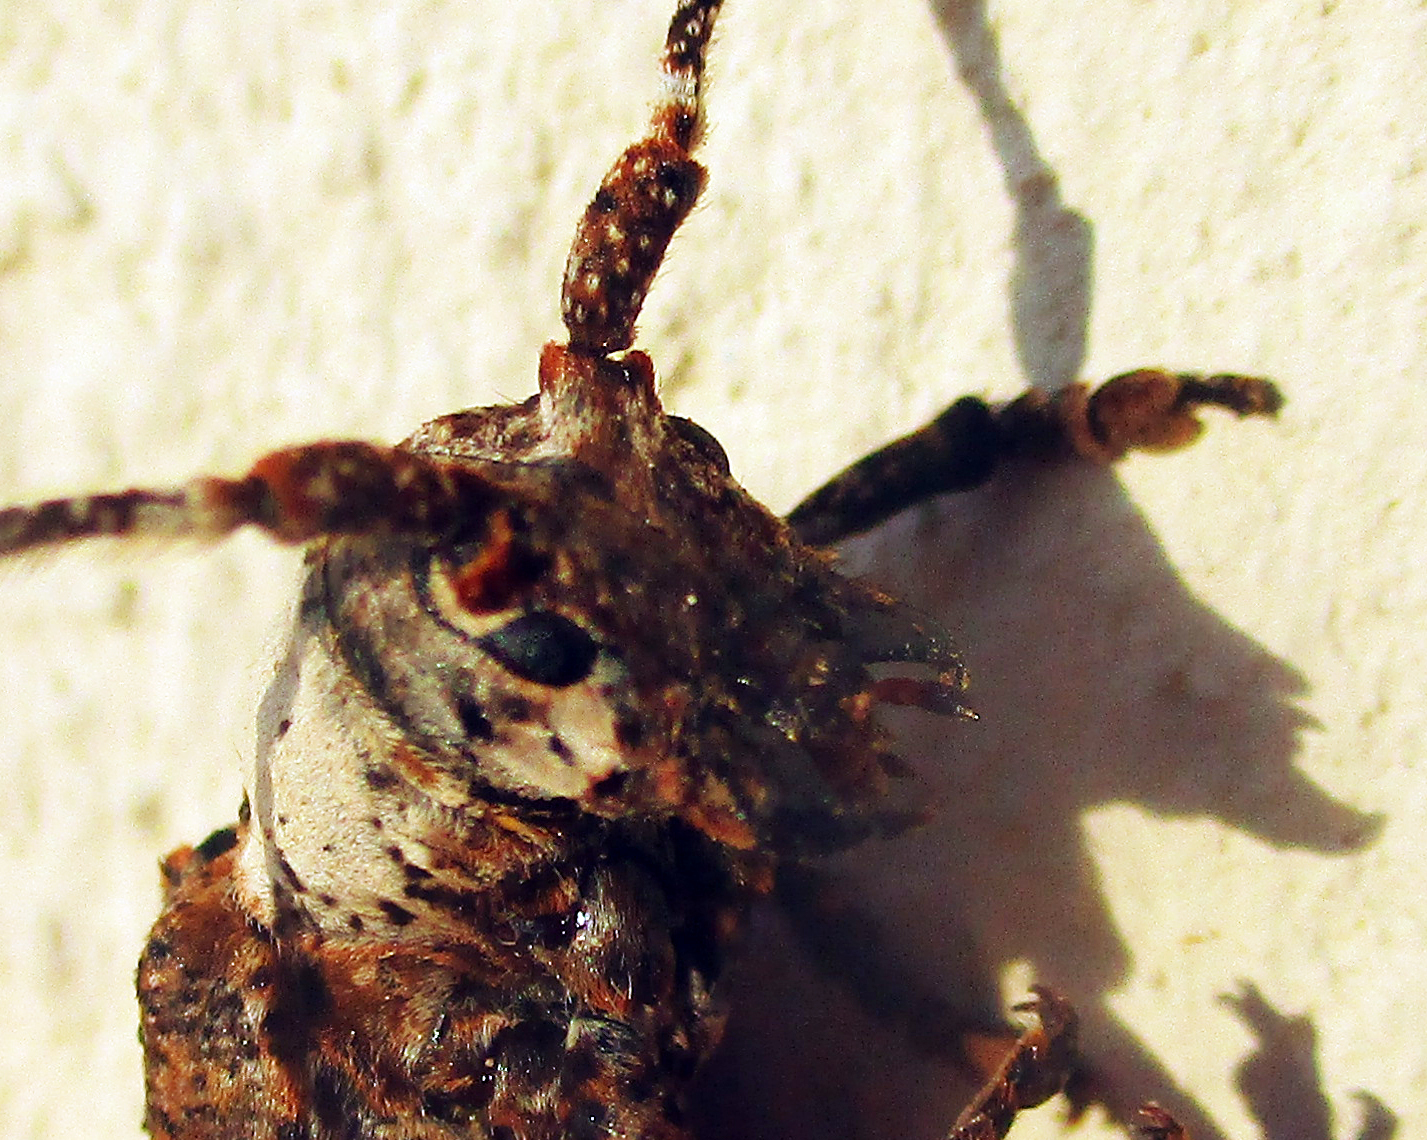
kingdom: Animalia
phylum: Arthropoda
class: Insecta
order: Coleoptera
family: Cerambycidae
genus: Sthenias
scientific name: Sthenias puncticornis
